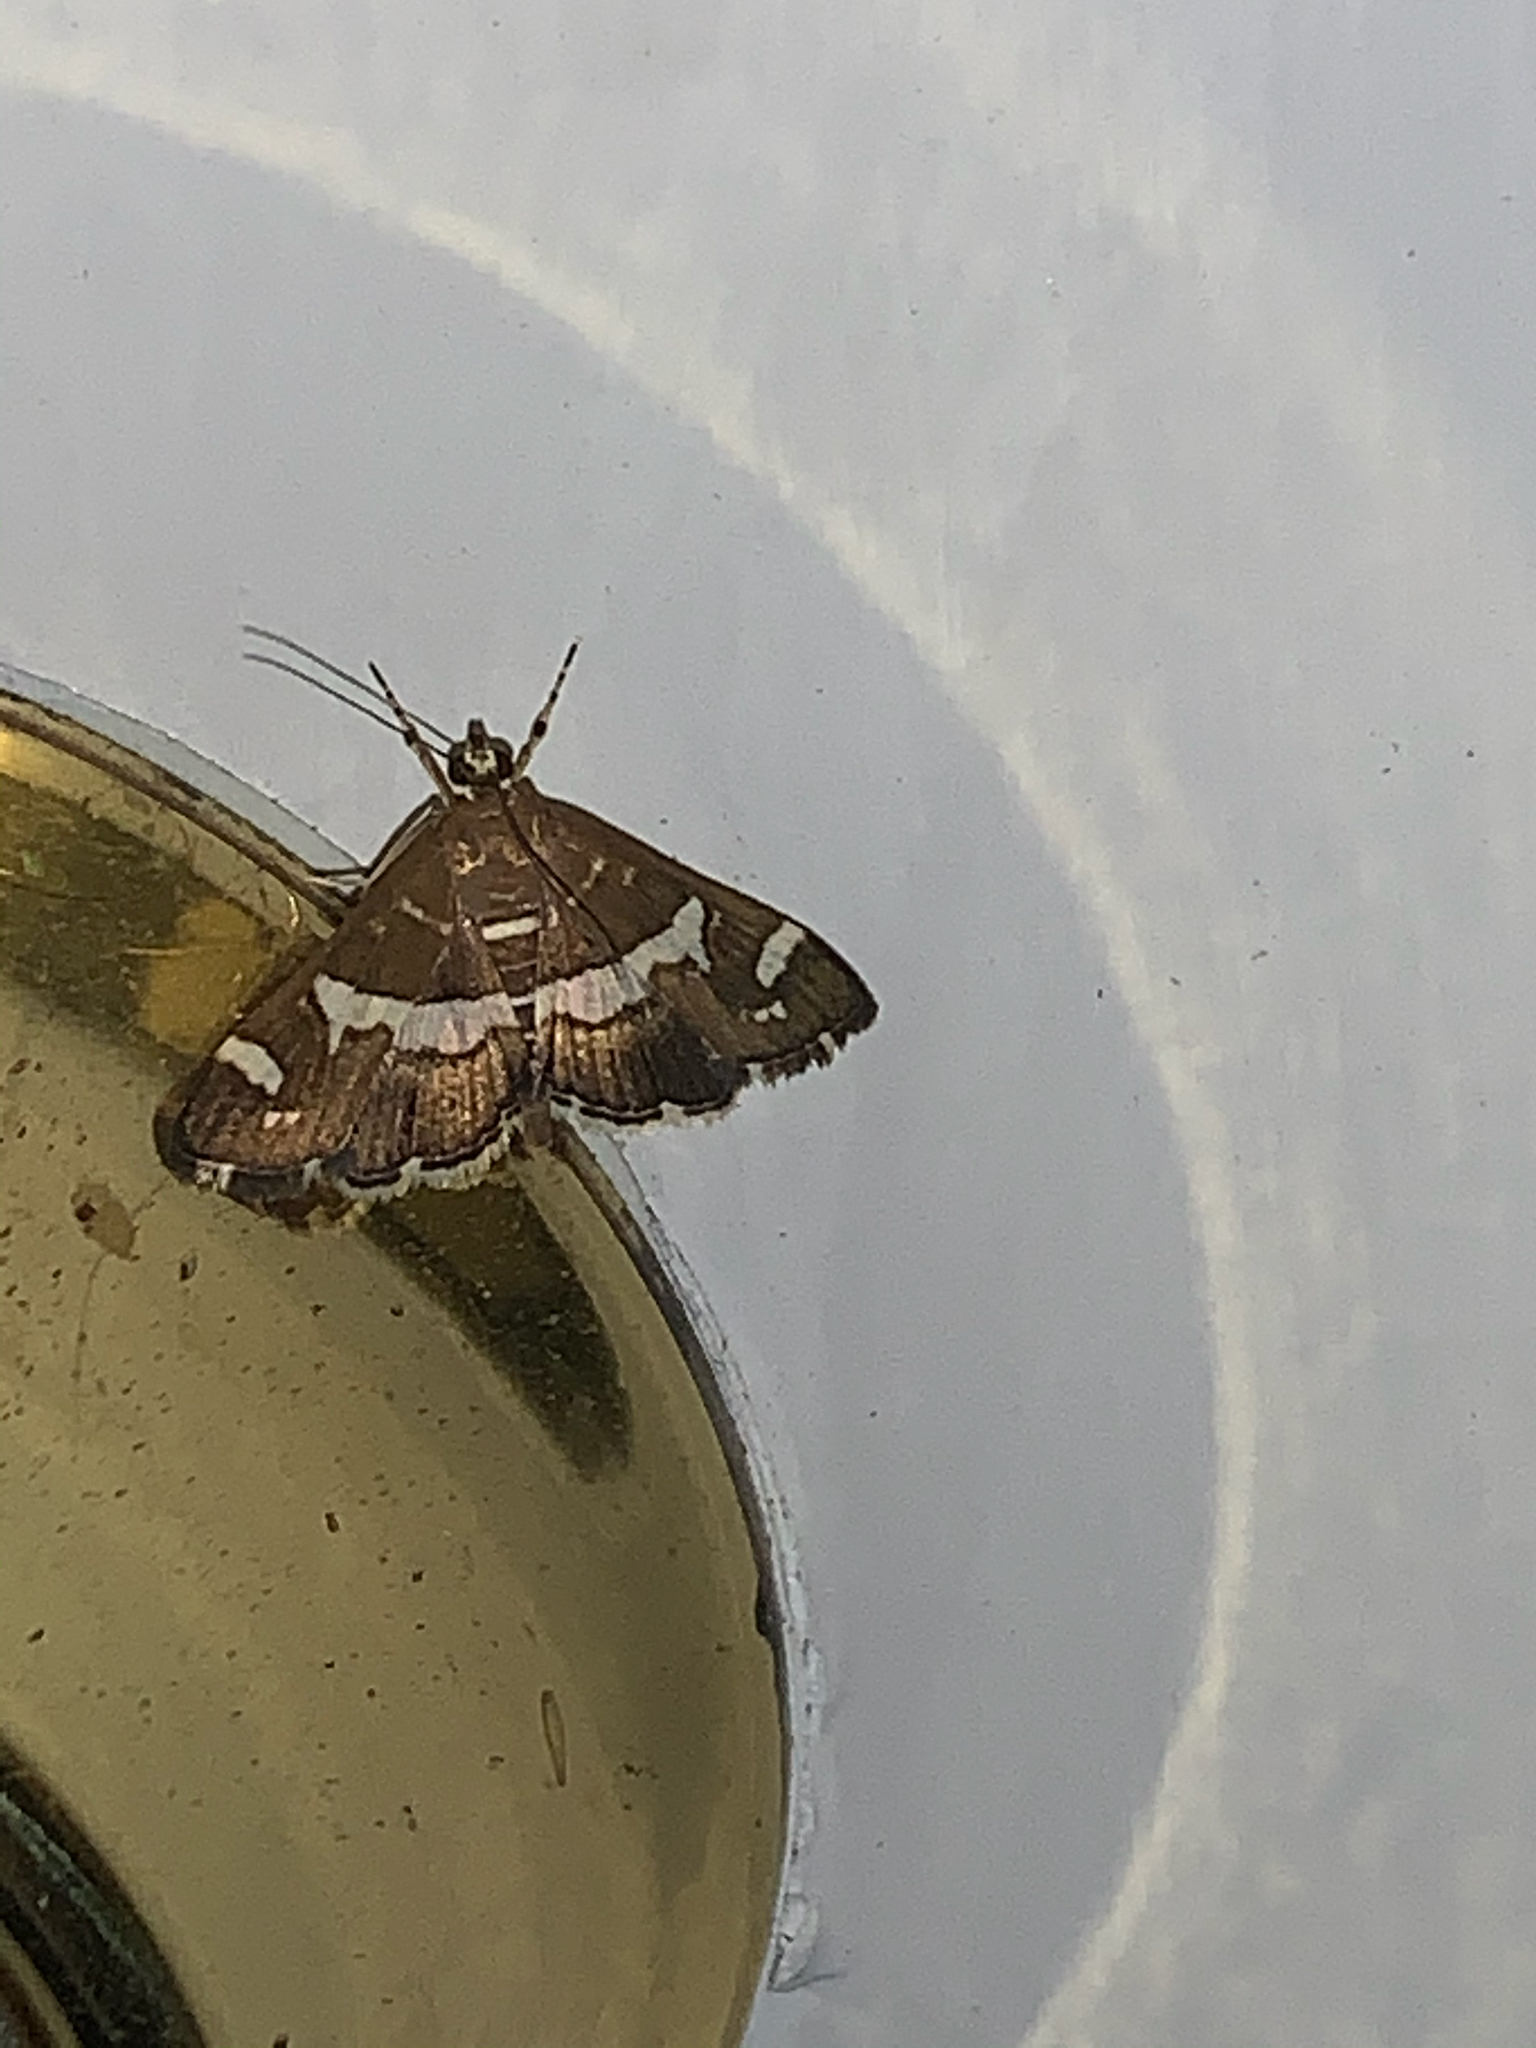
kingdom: Animalia
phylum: Arthropoda
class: Insecta
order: Lepidoptera
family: Crambidae
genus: Spoladea
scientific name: Spoladea recurvalis
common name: Beet webworm moth
